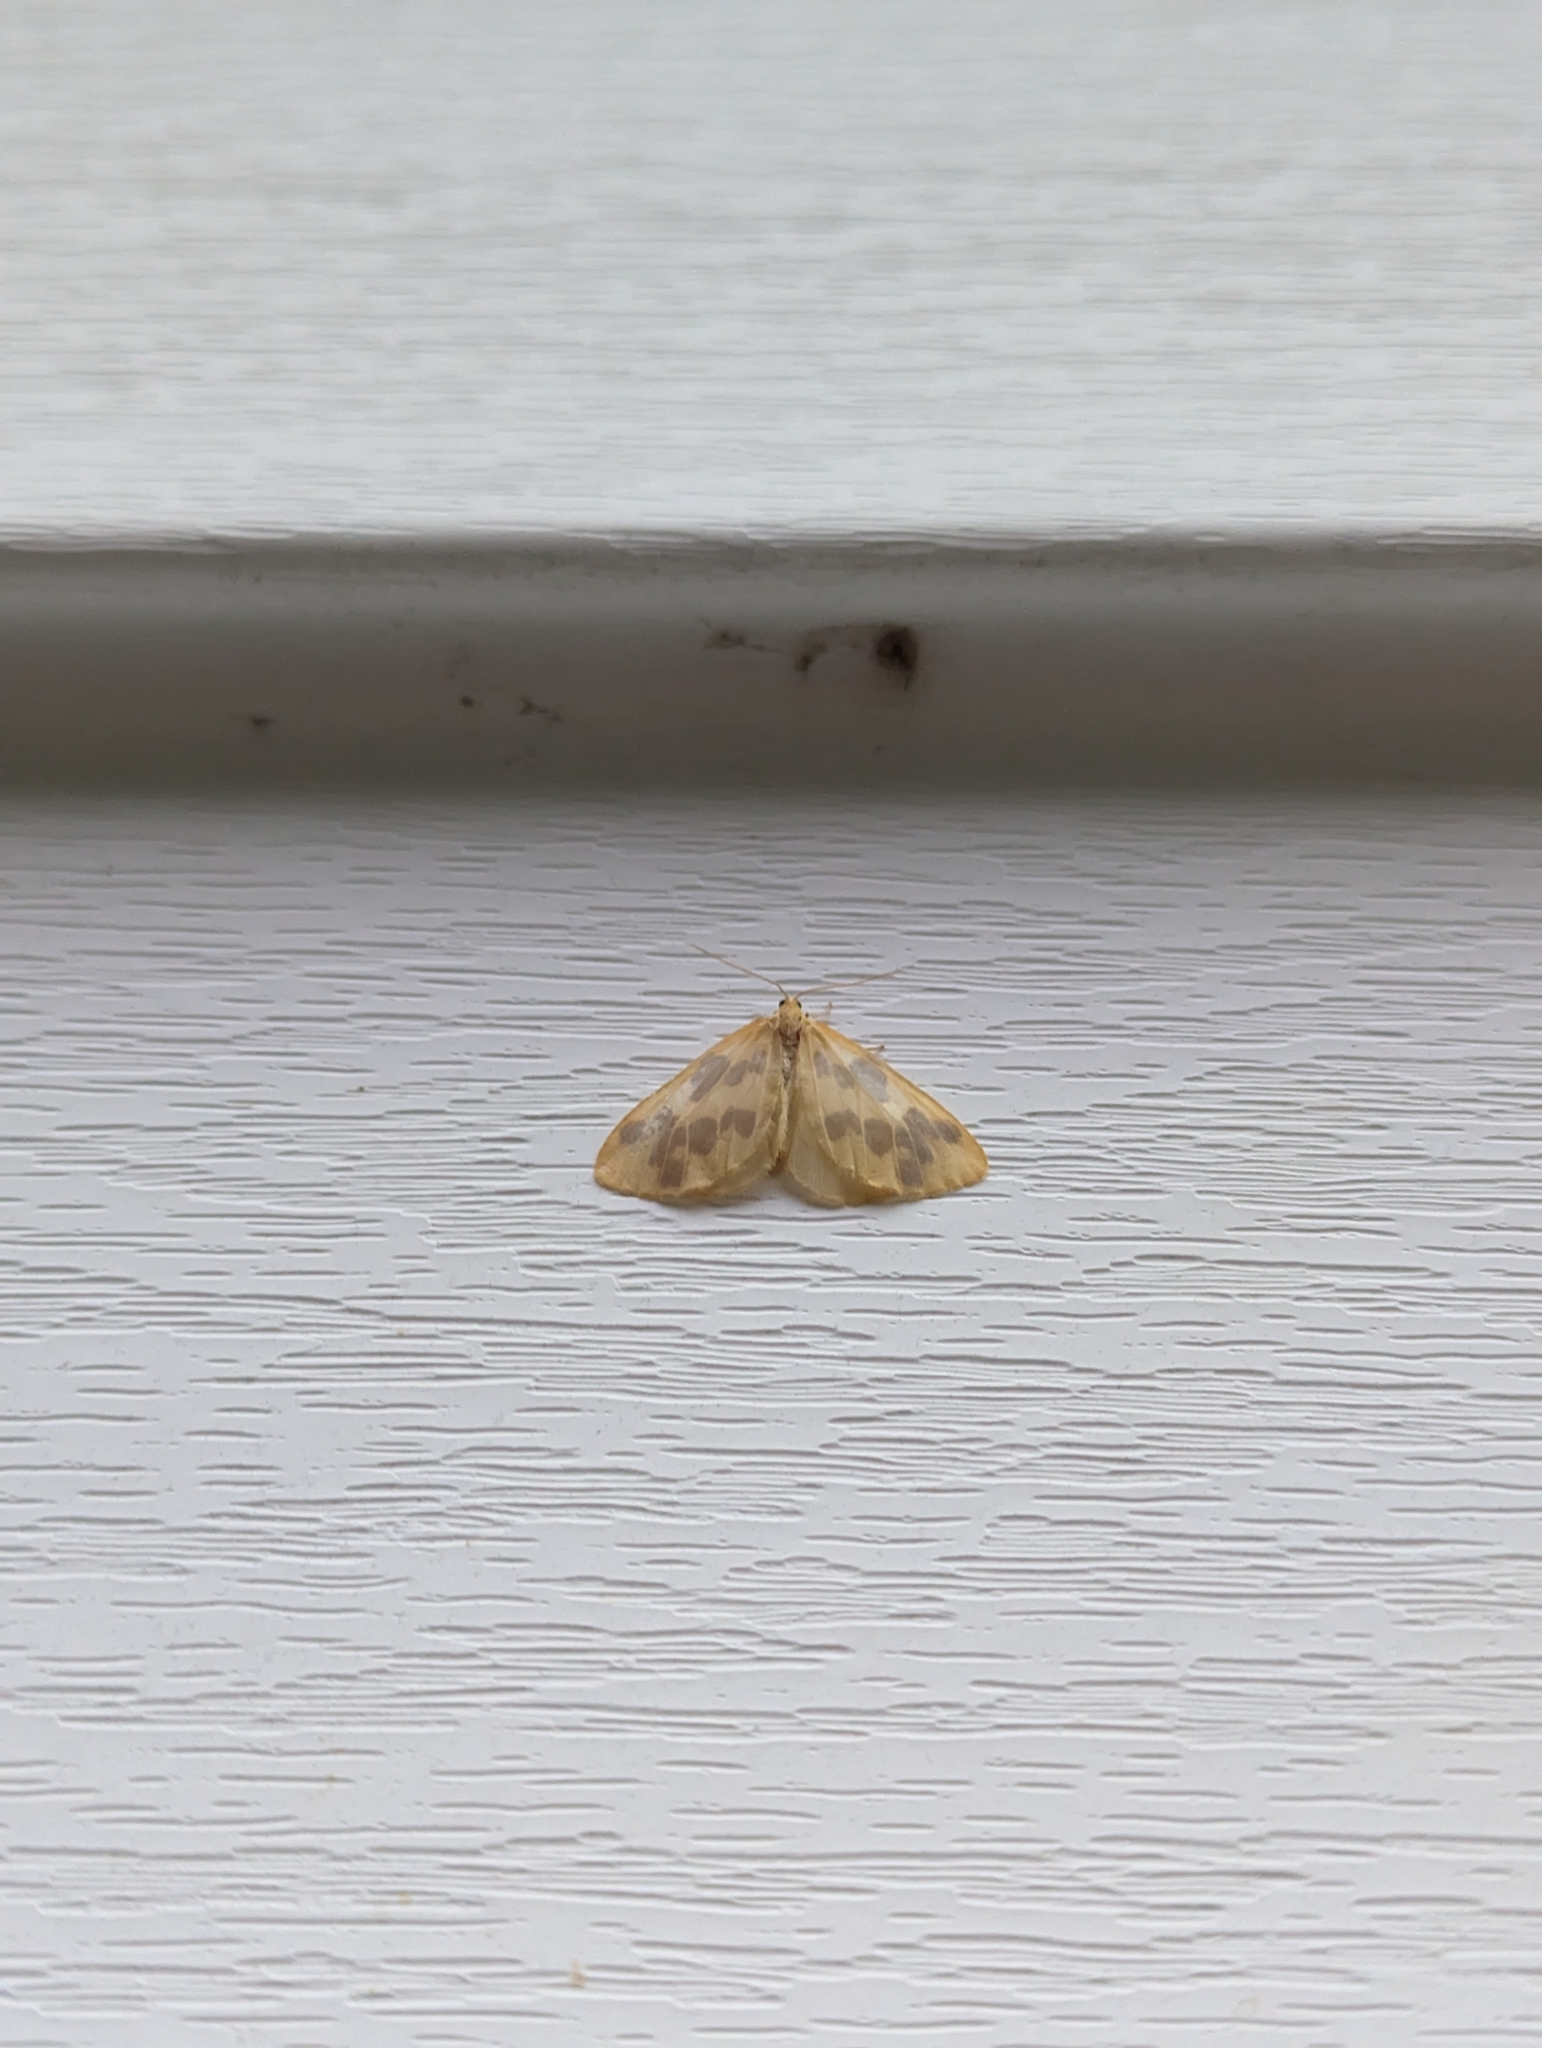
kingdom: Animalia
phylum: Arthropoda
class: Insecta
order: Lepidoptera
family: Geometridae
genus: Eubaphe
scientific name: Eubaphe mendica
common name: Beggar
